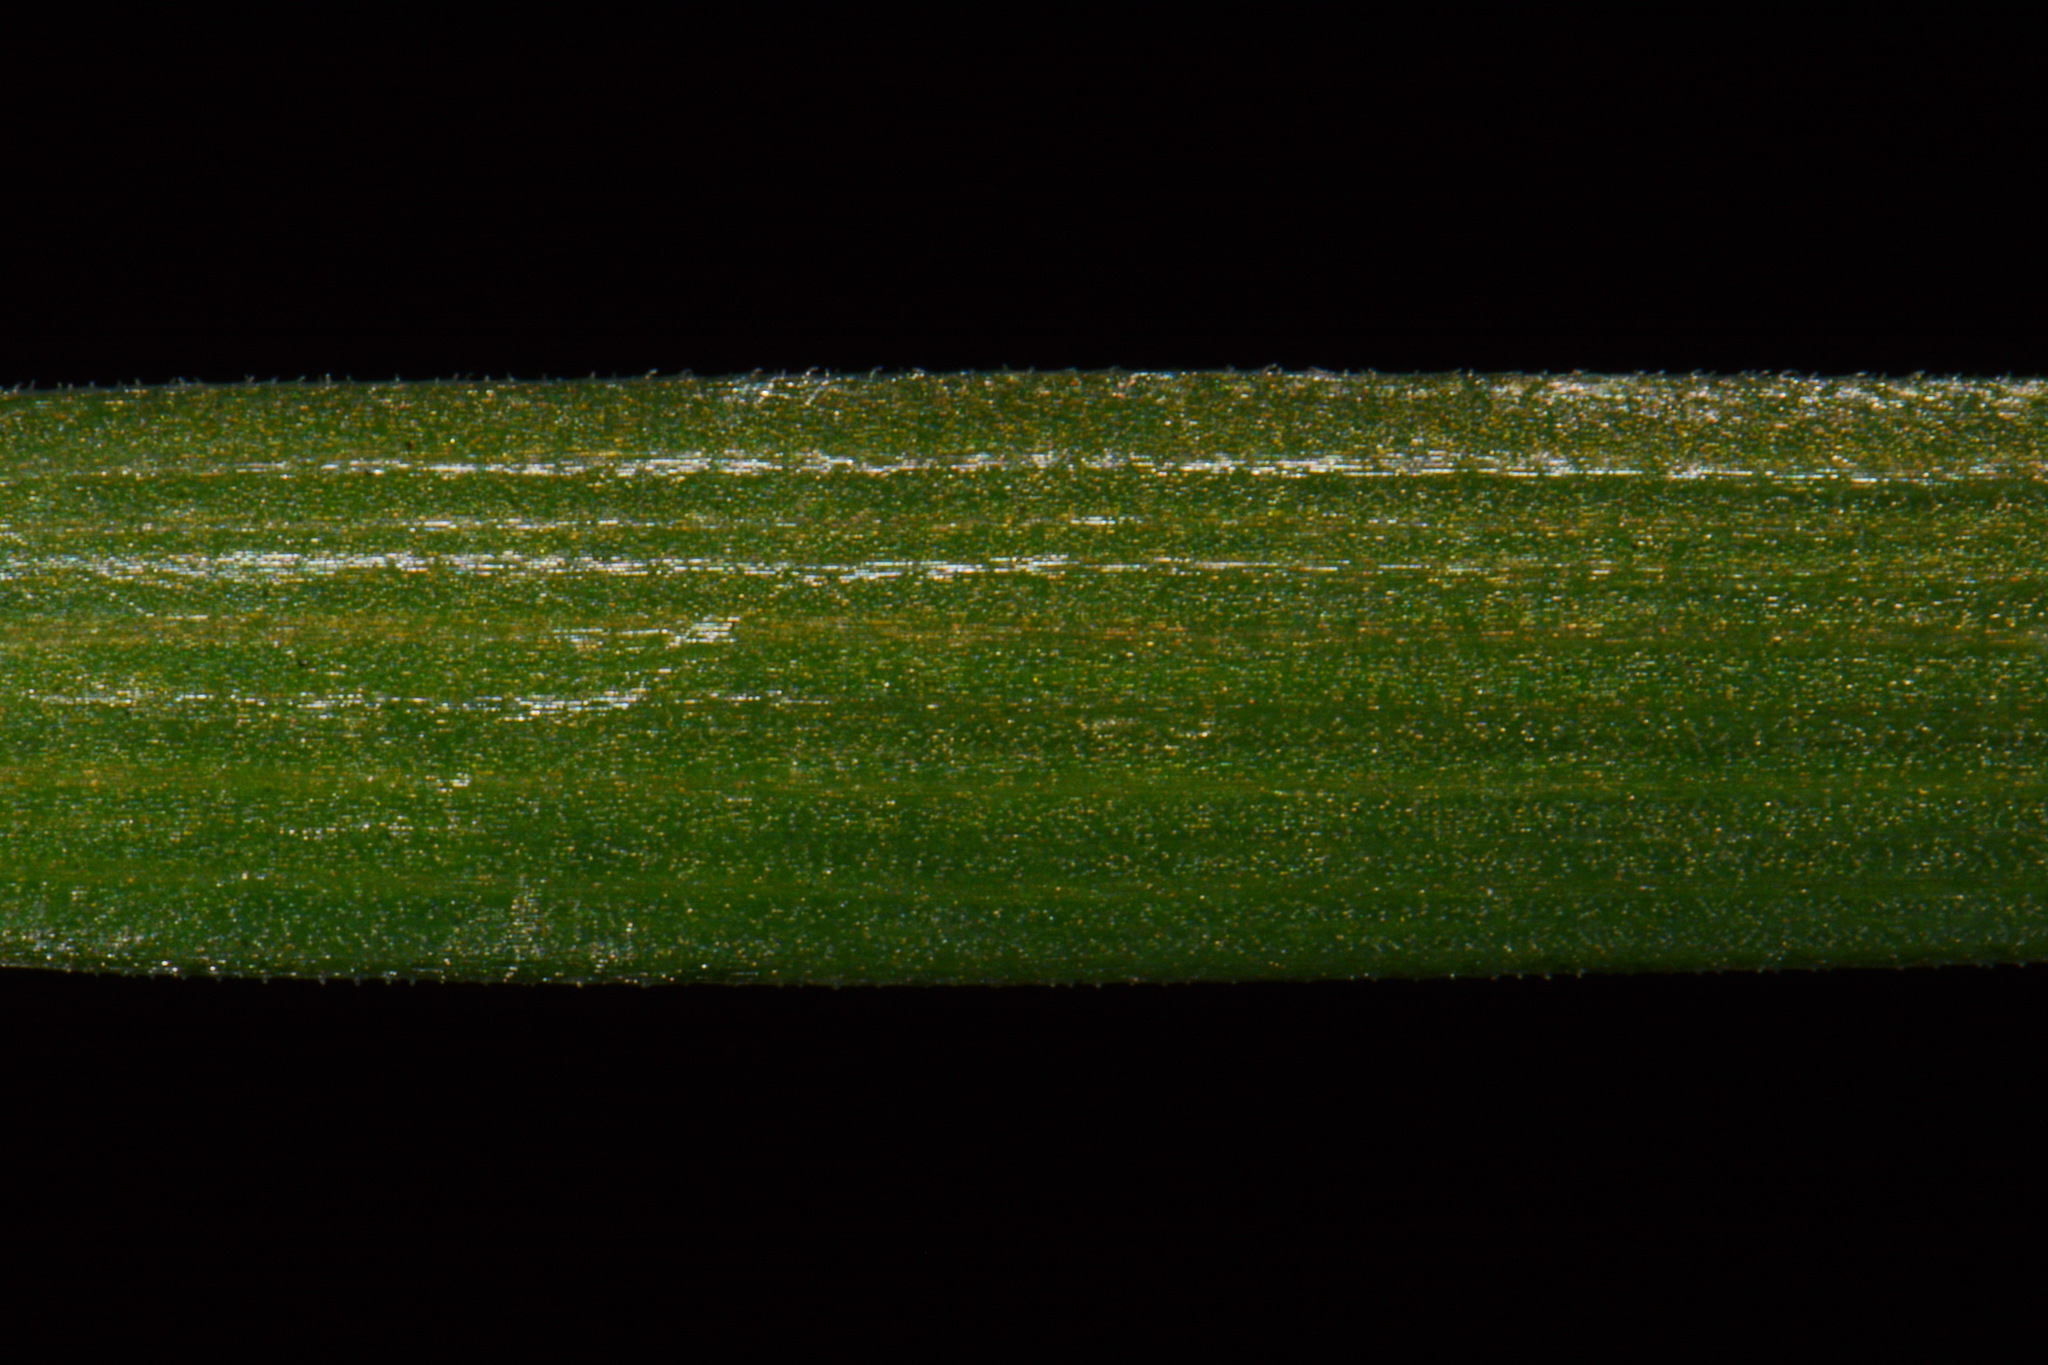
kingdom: Plantae
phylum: Tracheophyta
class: Liliopsida
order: Asparagales
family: Iridaceae
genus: Sisyrinchium
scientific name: Sisyrinchium nashii
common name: Nash's blue-eyed-grass
